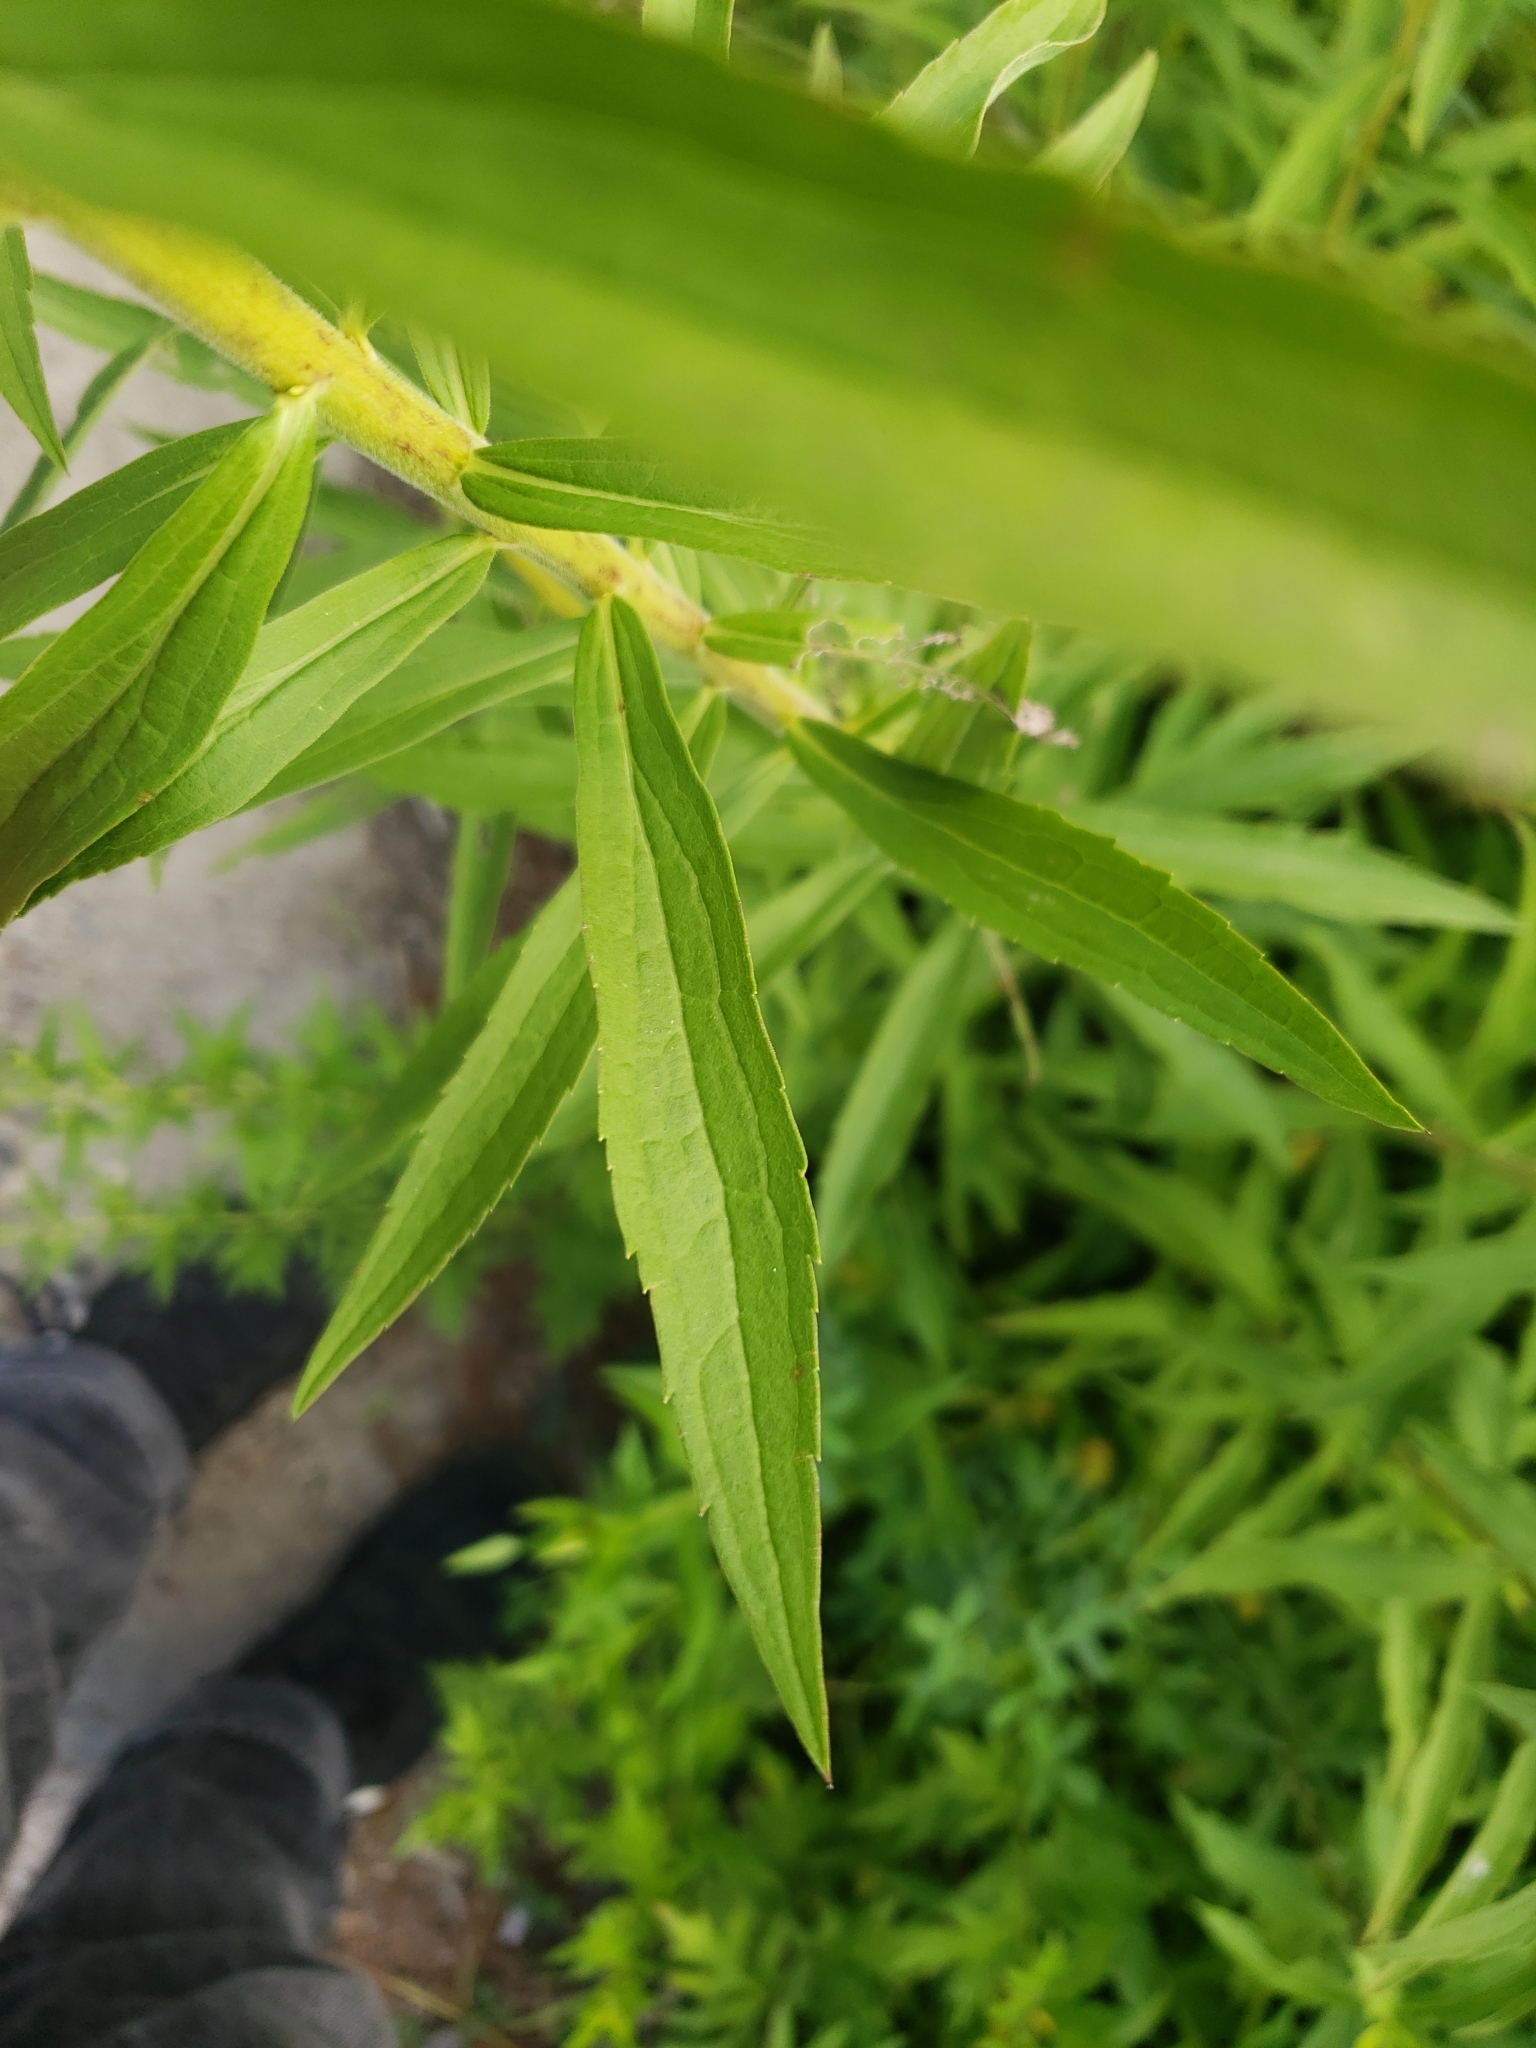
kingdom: Plantae
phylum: Tracheophyta
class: Magnoliopsida
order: Asterales
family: Asteraceae
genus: Solidago
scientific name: Solidago canadensis
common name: Canada goldenrod
